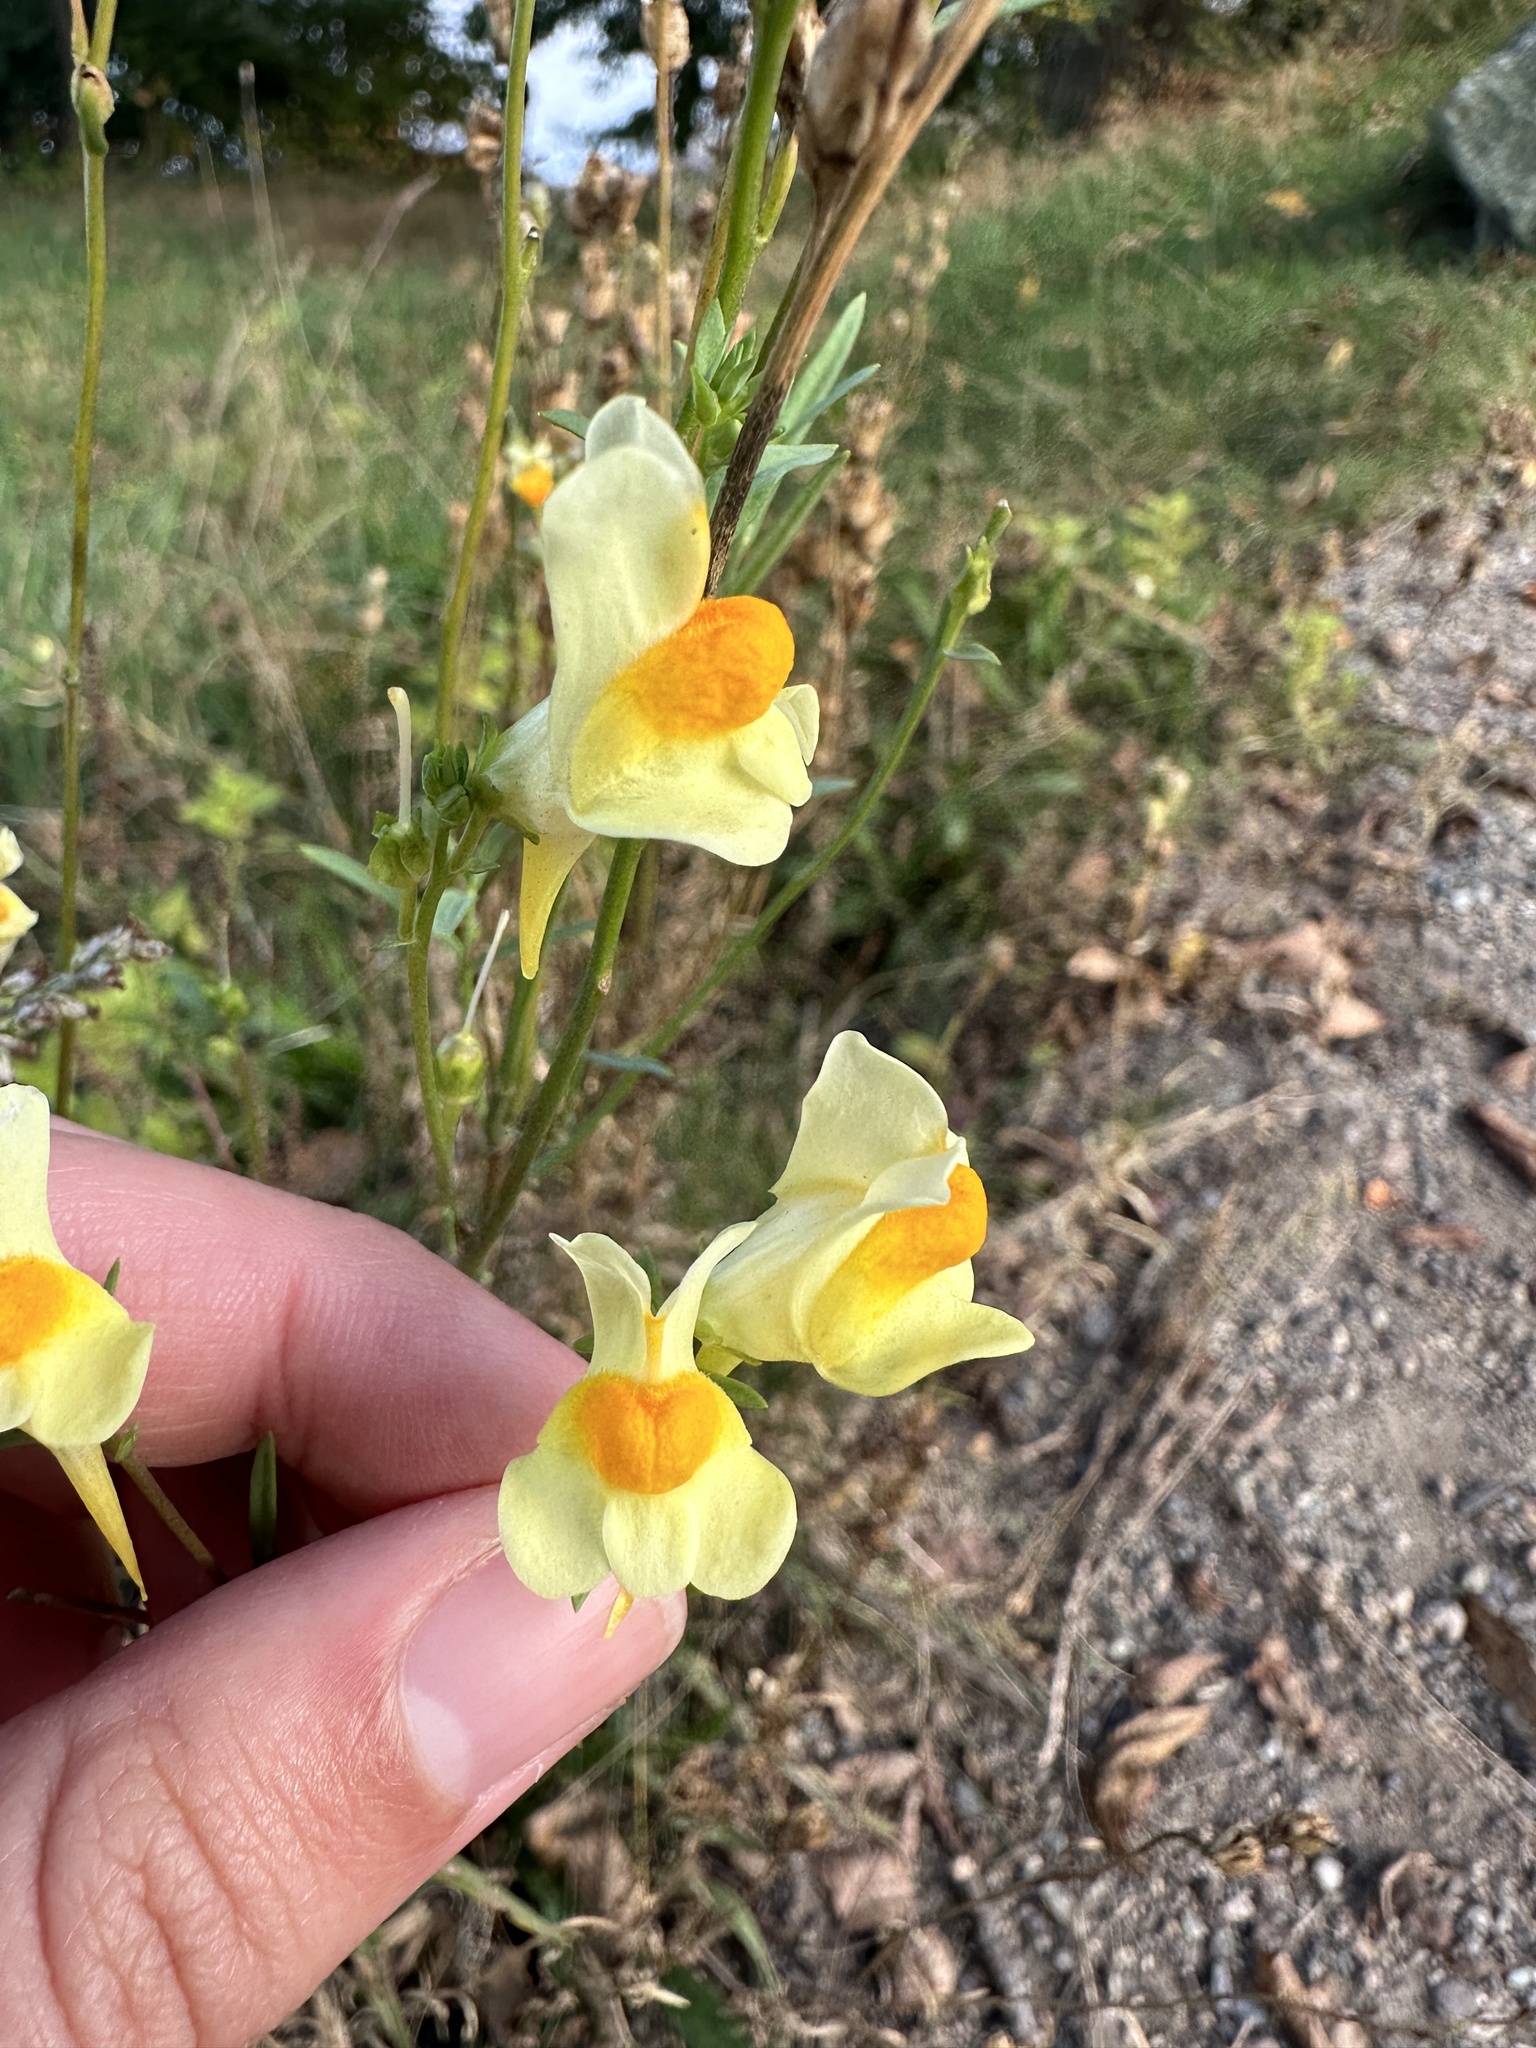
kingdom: Plantae
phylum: Tracheophyta
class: Magnoliopsida
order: Lamiales
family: Plantaginaceae
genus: Linaria
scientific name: Linaria vulgaris
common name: Butter and eggs
